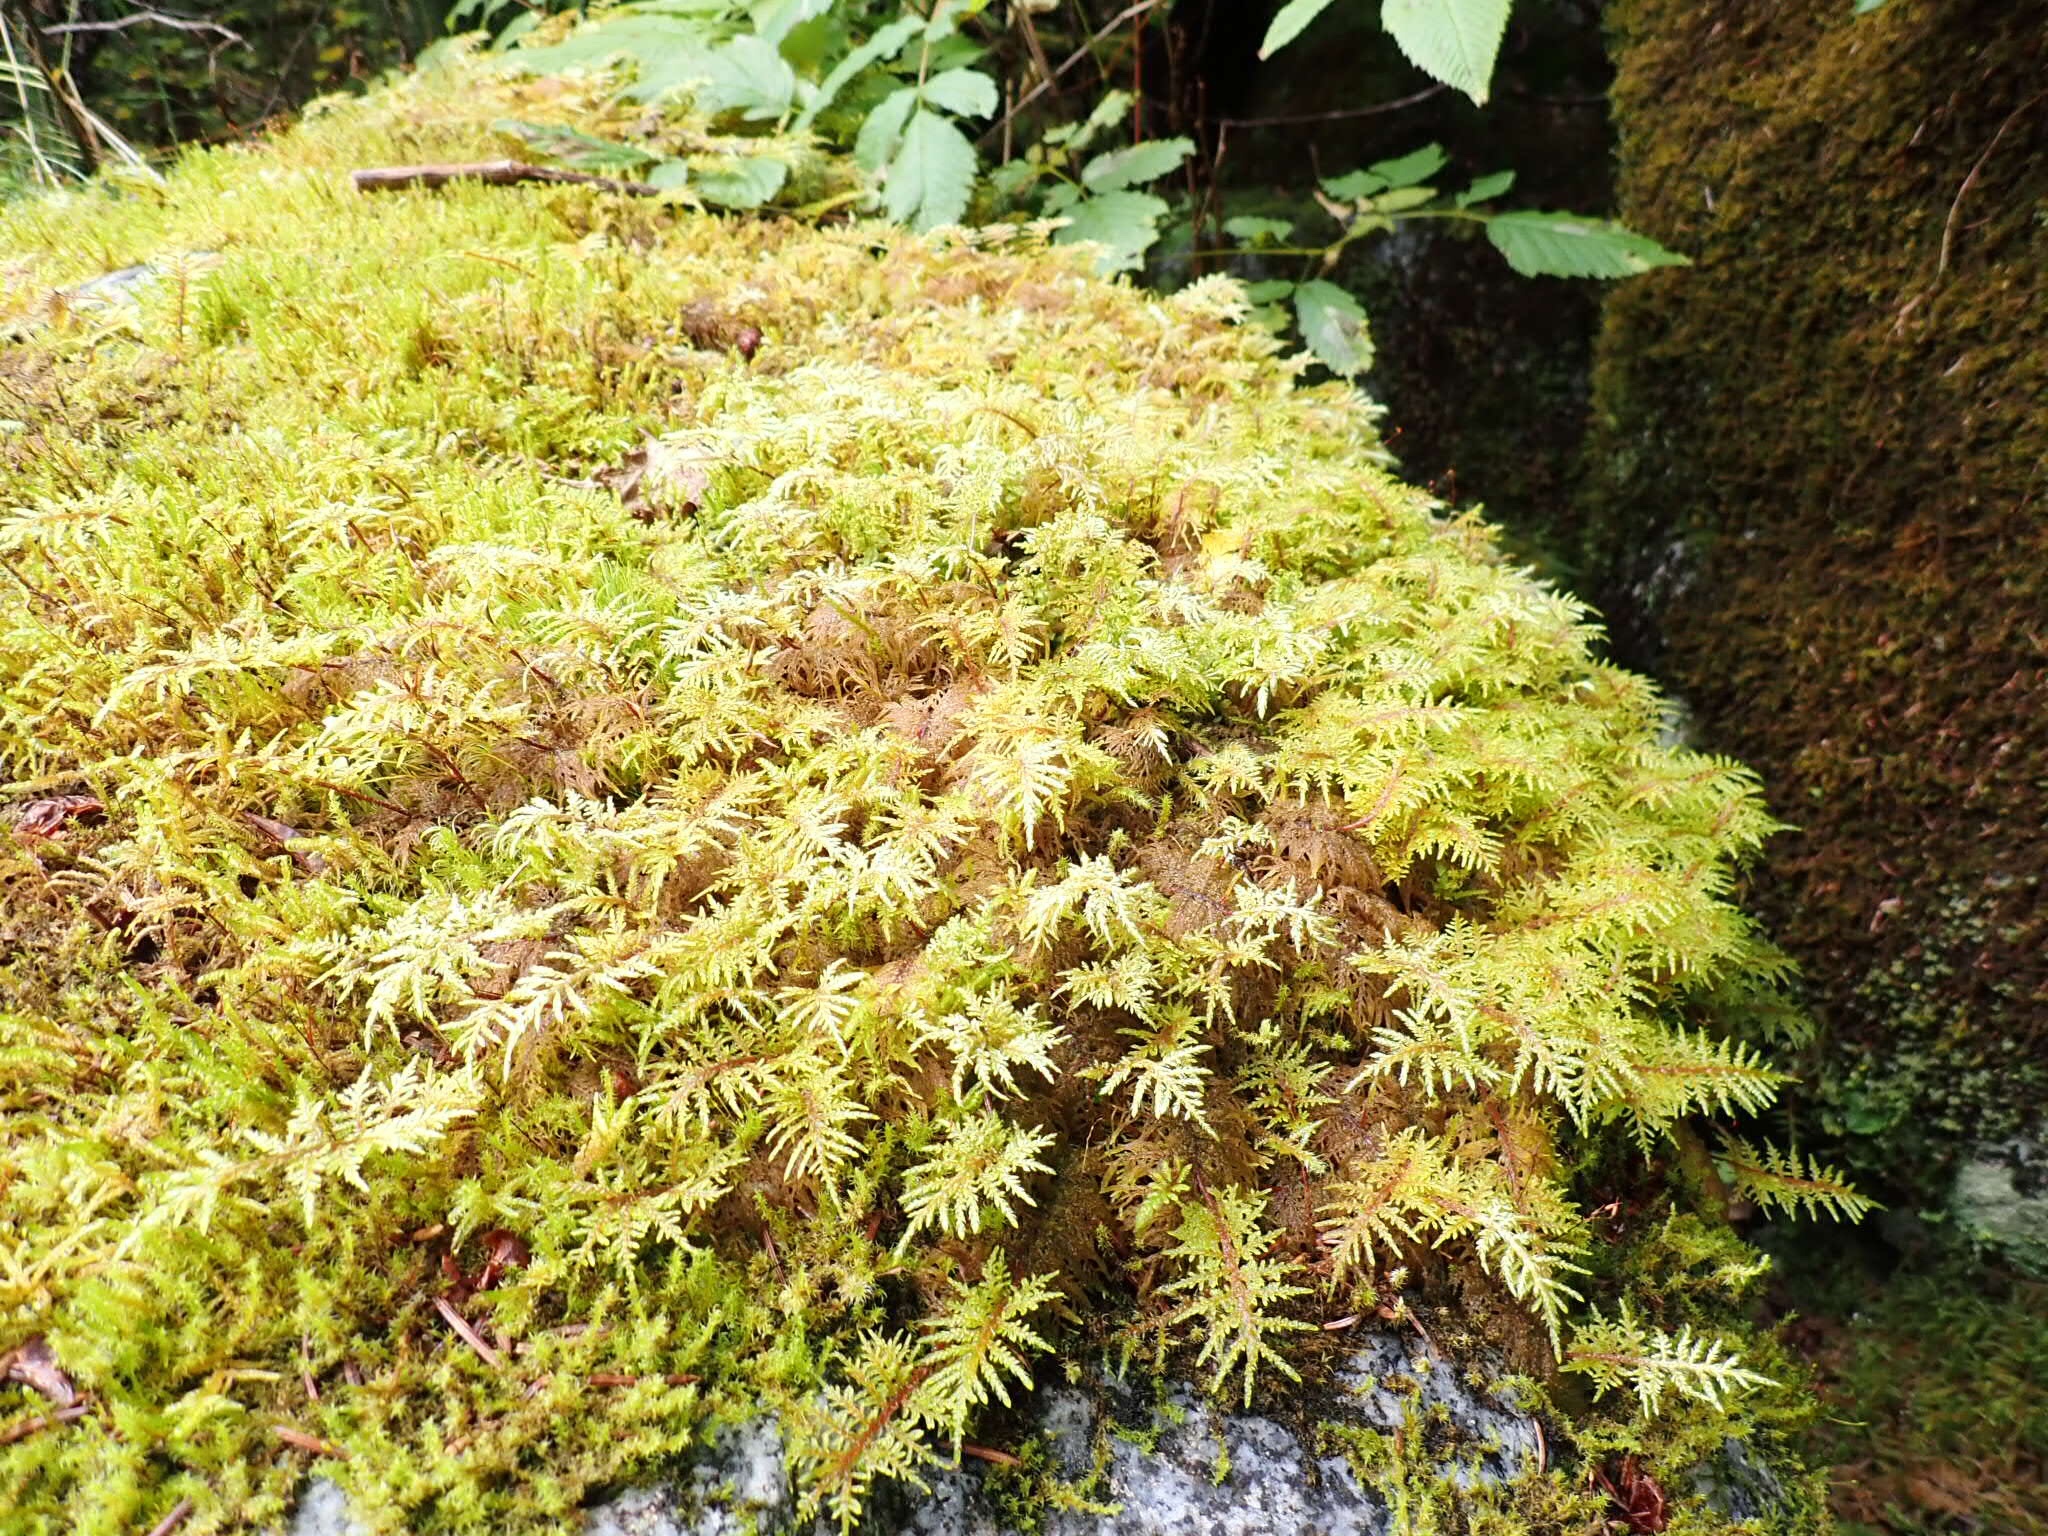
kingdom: Plantae
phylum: Bryophyta
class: Bryopsida
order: Hypnales
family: Hylocomiaceae
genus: Hylocomium
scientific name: Hylocomium splendens
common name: Stairstep moss
